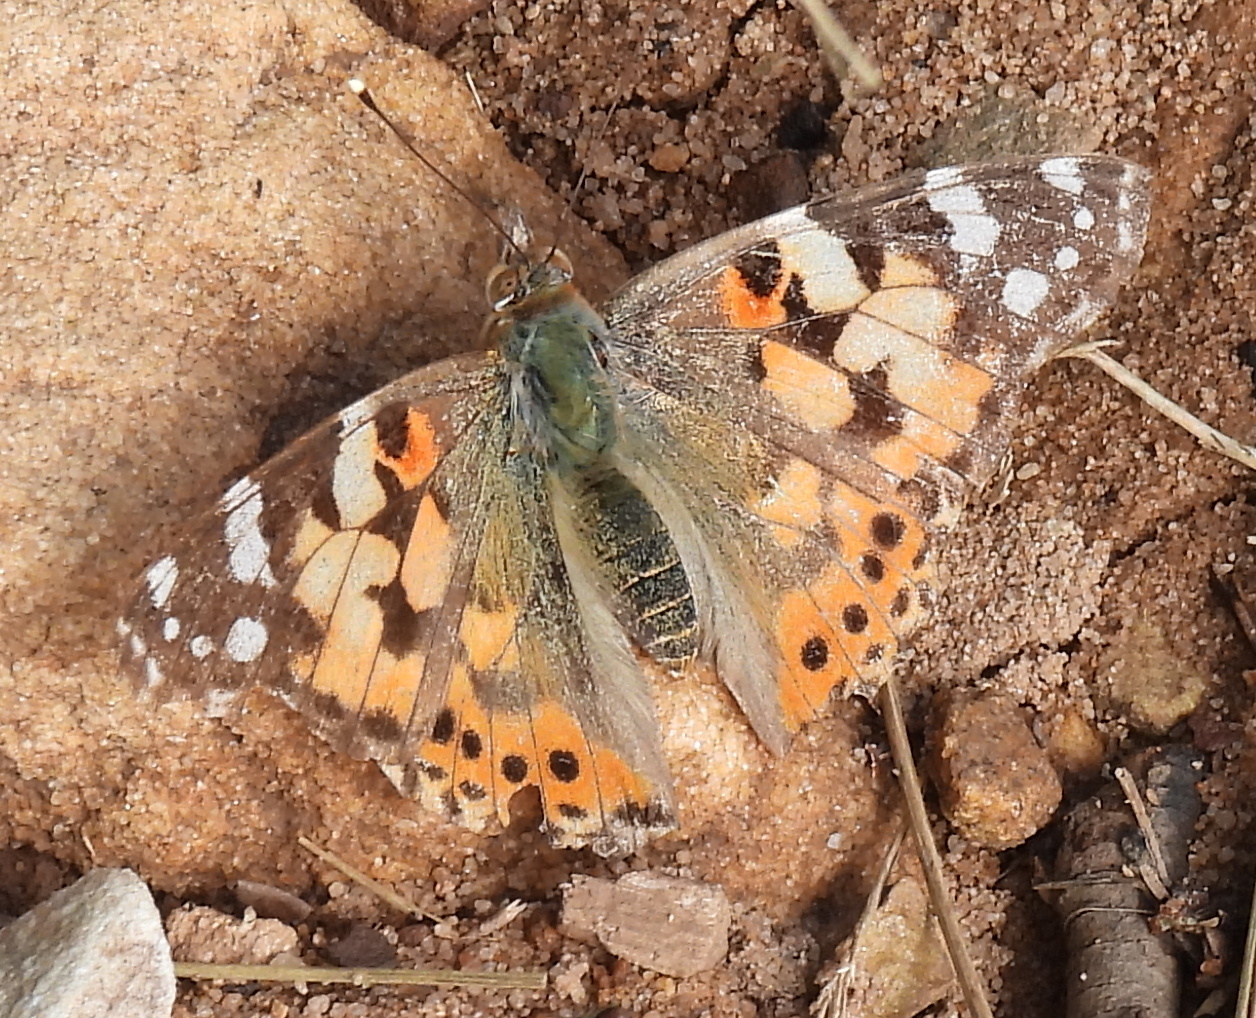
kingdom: Animalia
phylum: Arthropoda
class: Insecta
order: Lepidoptera
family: Nymphalidae
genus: Vanessa
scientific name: Vanessa cardui
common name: Painted lady
